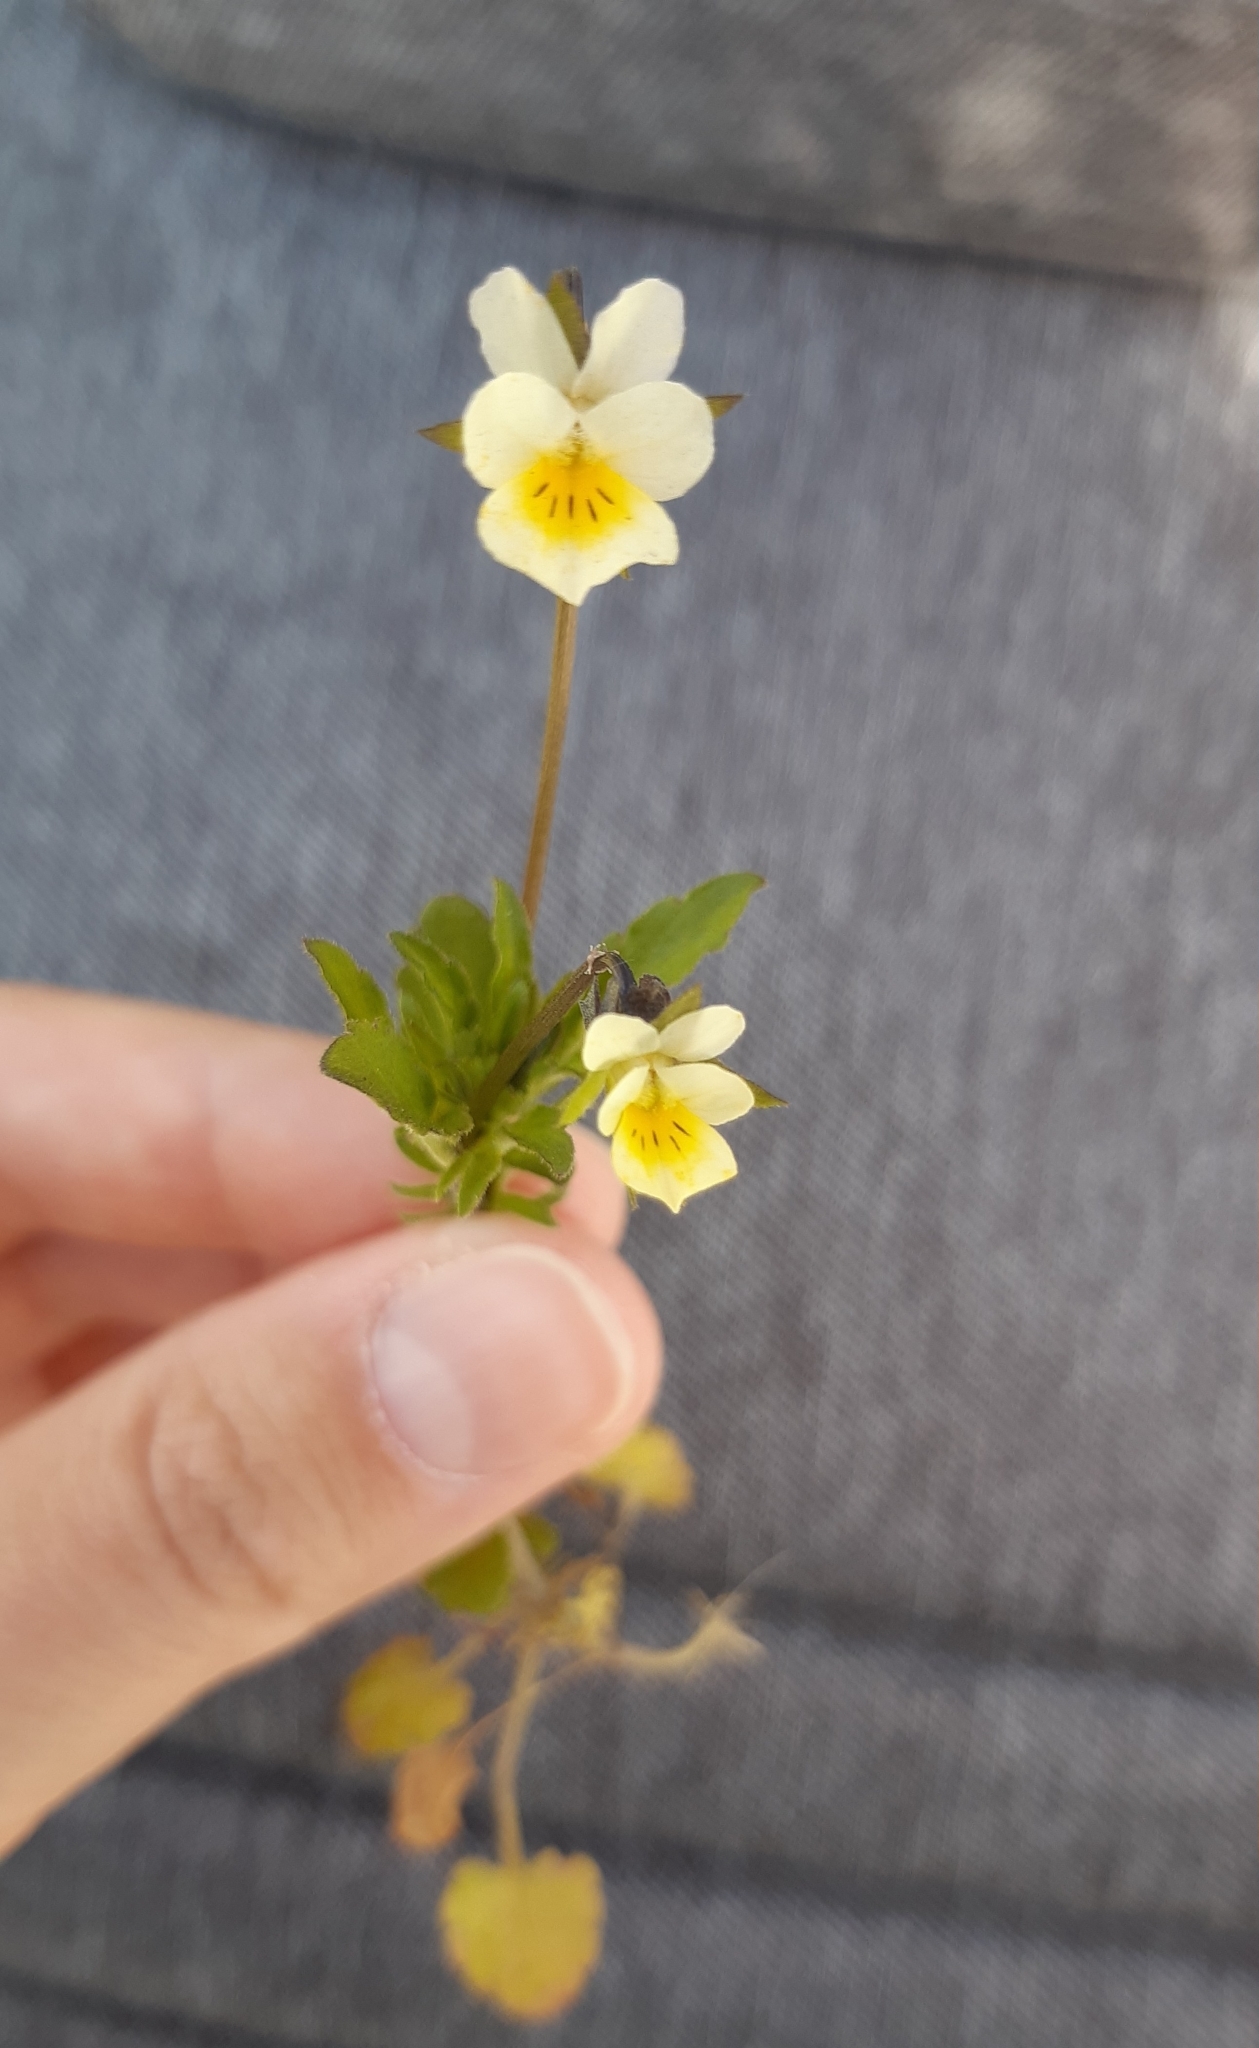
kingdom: Plantae
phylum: Tracheophyta
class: Magnoliopsida
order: Malpighiales
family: Violaceae
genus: Viola
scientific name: Viola arvensis
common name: Field pansy
